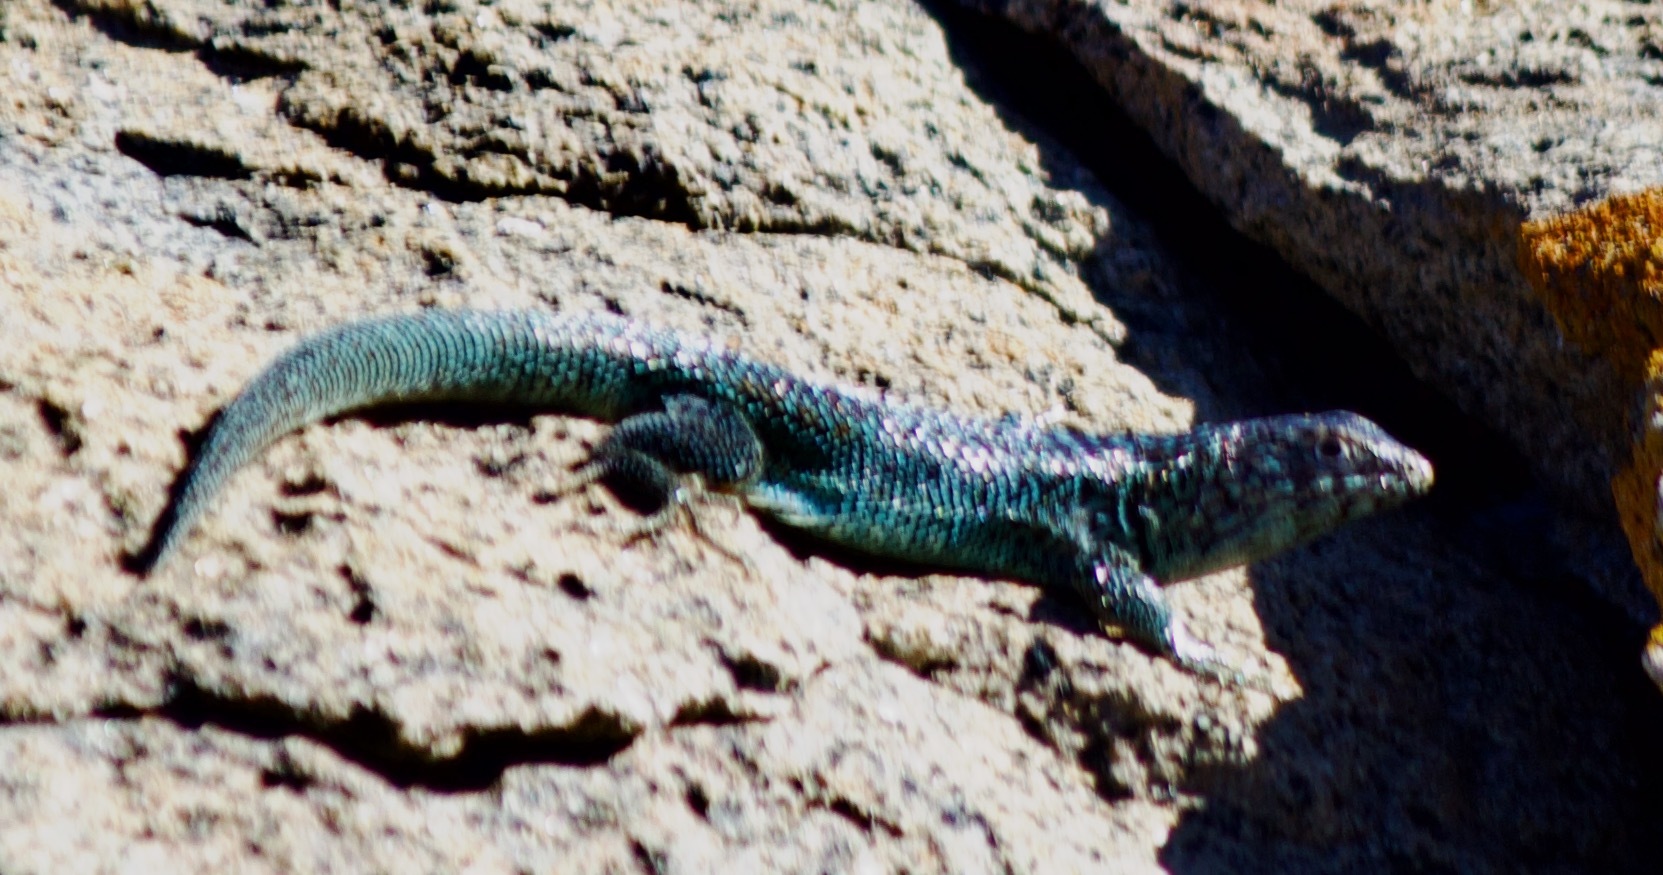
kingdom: Animalia
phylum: Chordata
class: Squamata
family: Liolaemidae
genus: Liolaemus
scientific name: Liolaemus zapallarensis
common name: Zapallaren tree iguana
